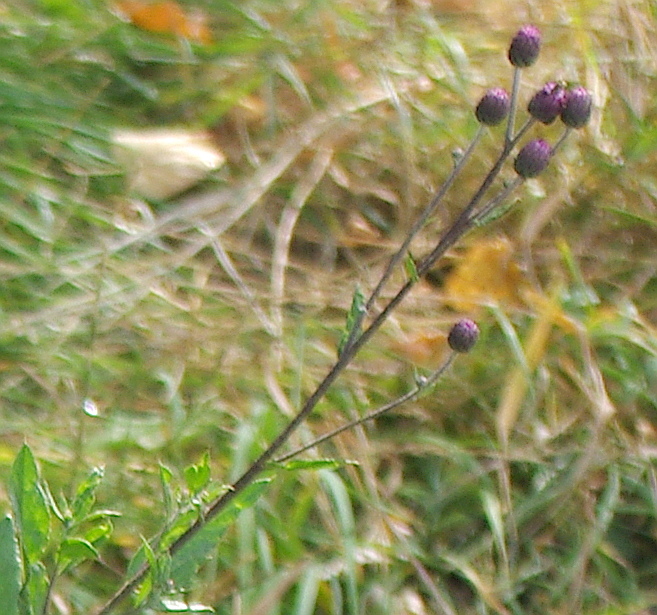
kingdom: Plantae
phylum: Tracheophyta
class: Magnoliopsida
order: Asterales
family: Asteraceae
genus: Cirsium
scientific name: Cirsium arvense
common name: Creeping thistle
